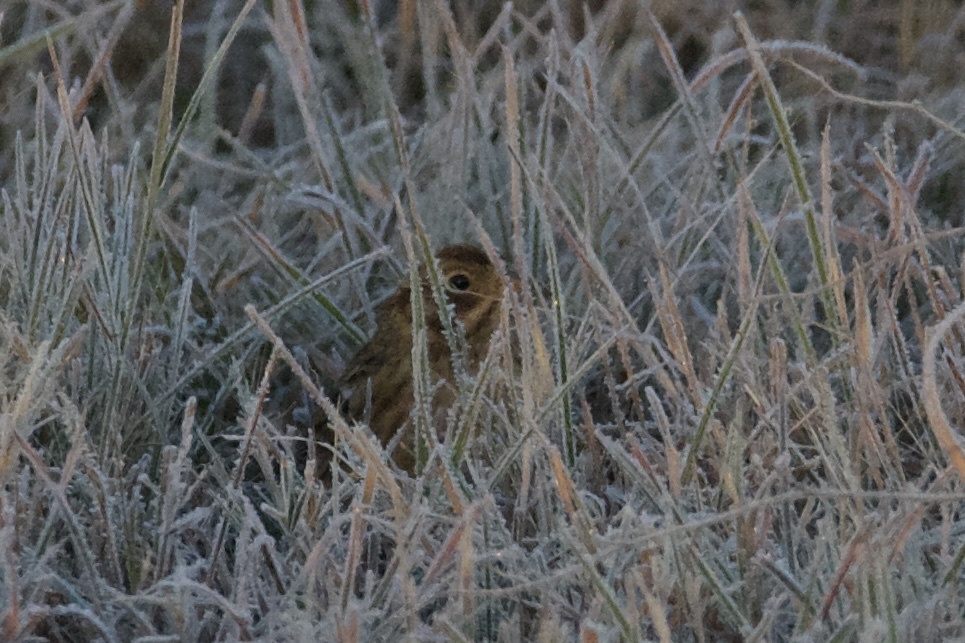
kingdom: Animalia
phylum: Chordata
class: Aves
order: Passeriformes
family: Calcariidae
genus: Calcarius
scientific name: Calcarius pictus
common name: Smith's longspur
